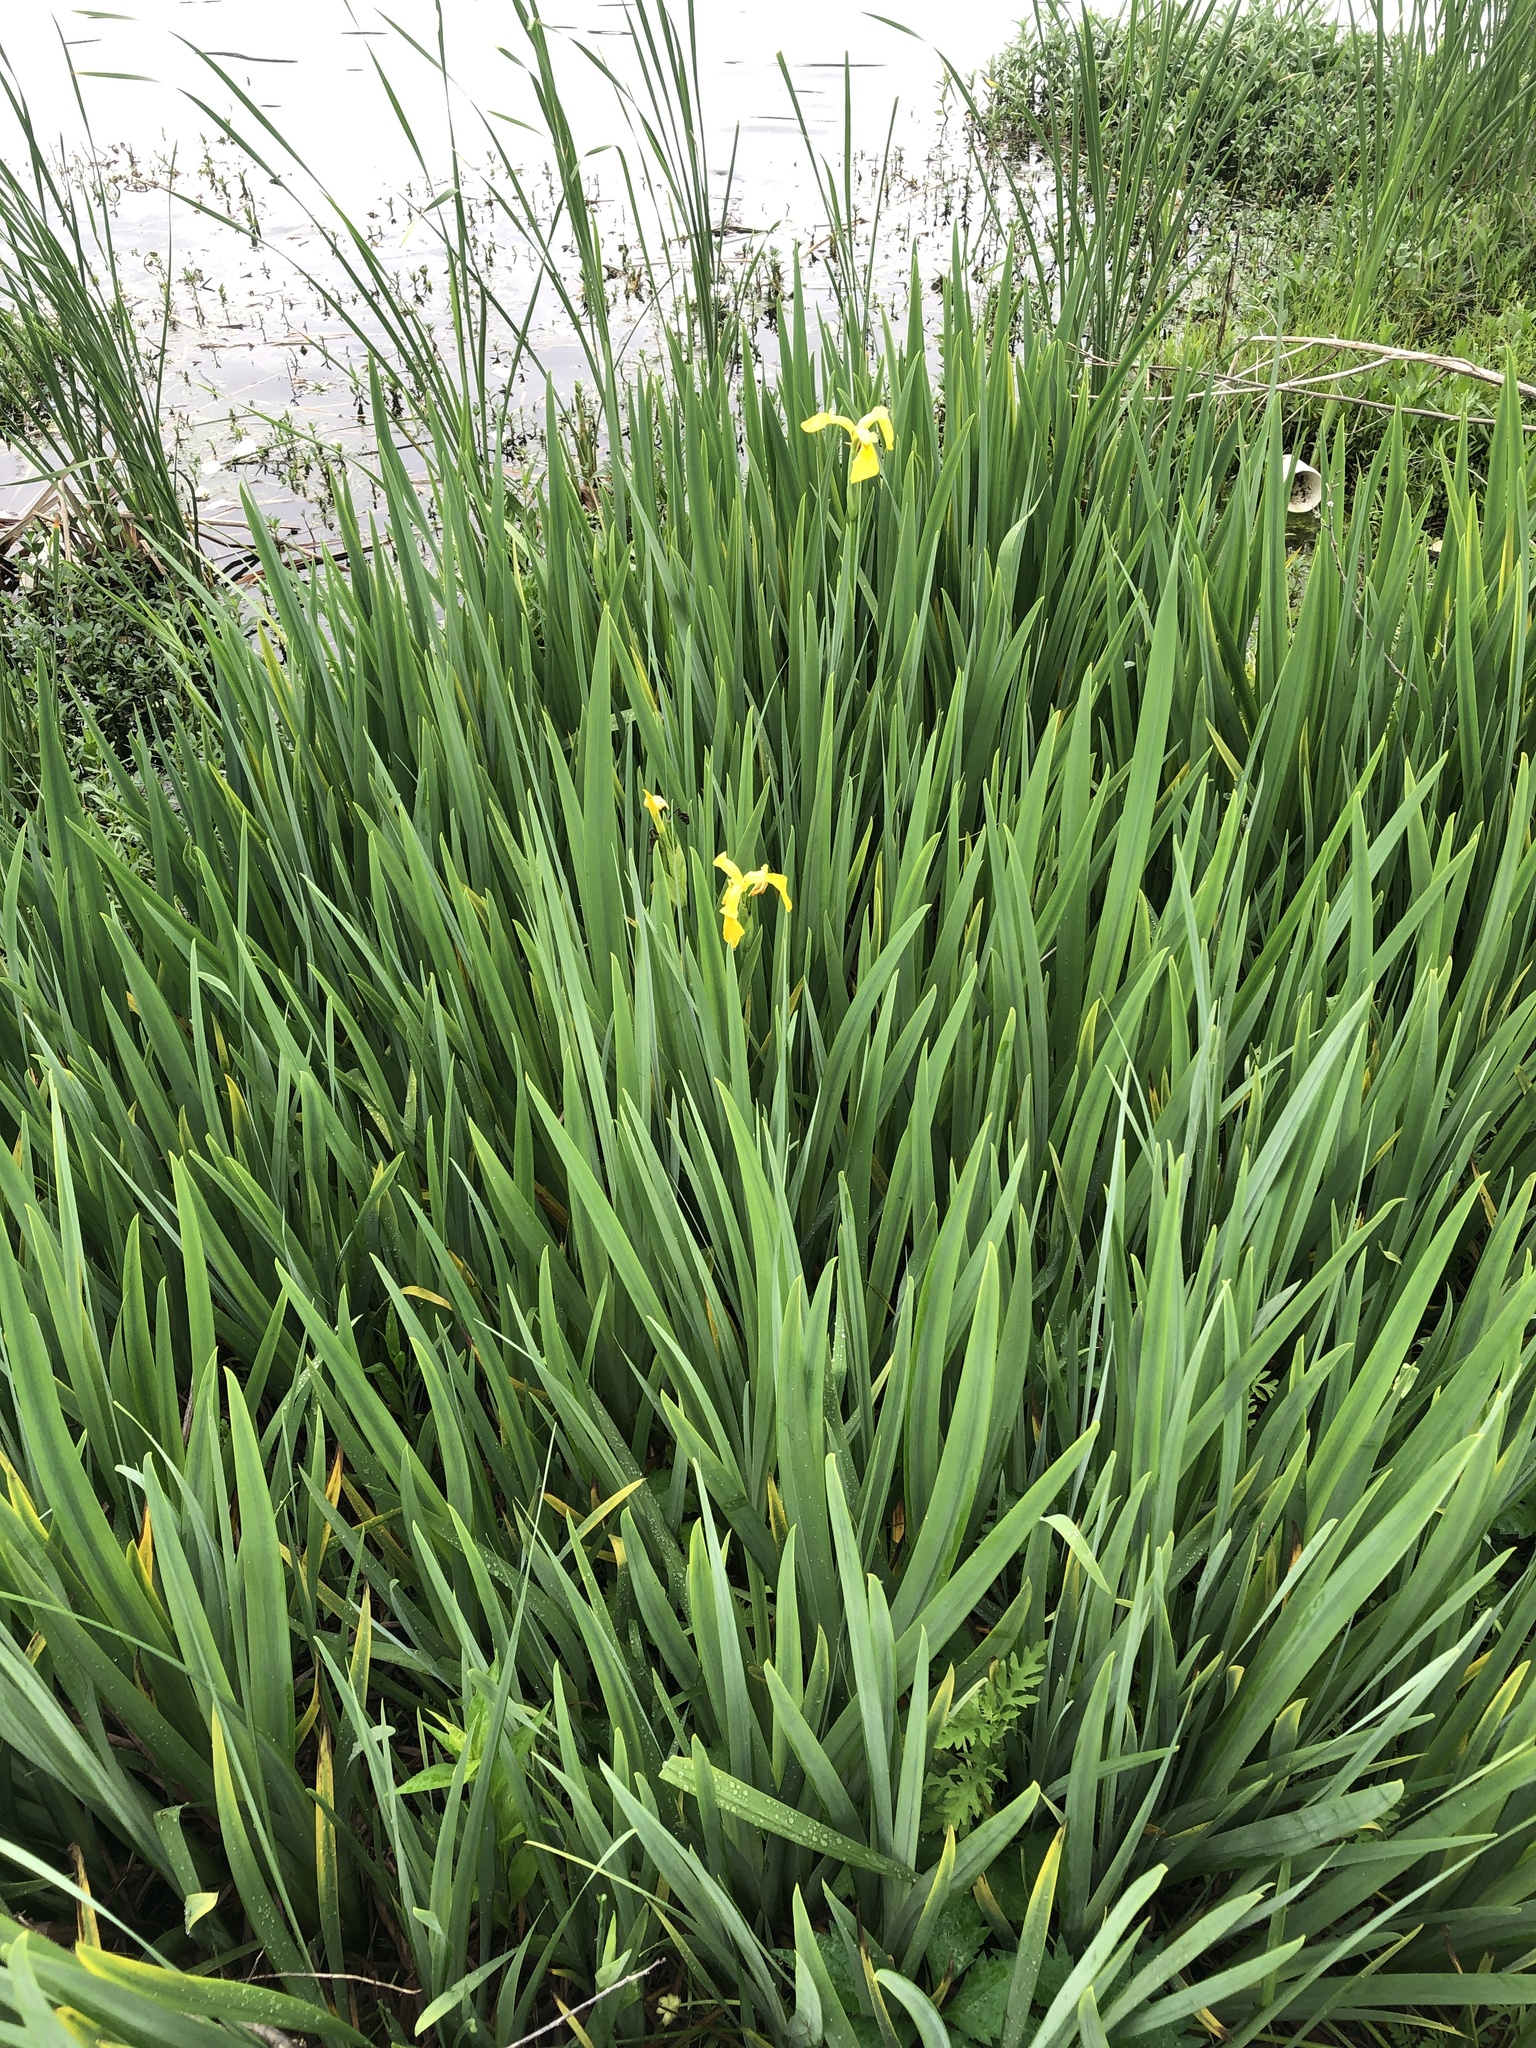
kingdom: Plantae
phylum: Tracheophyta
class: Liliopsida
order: Asparagales
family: Iridaceae
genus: Iris
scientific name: Iris pseudacorus
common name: Yellow flag
